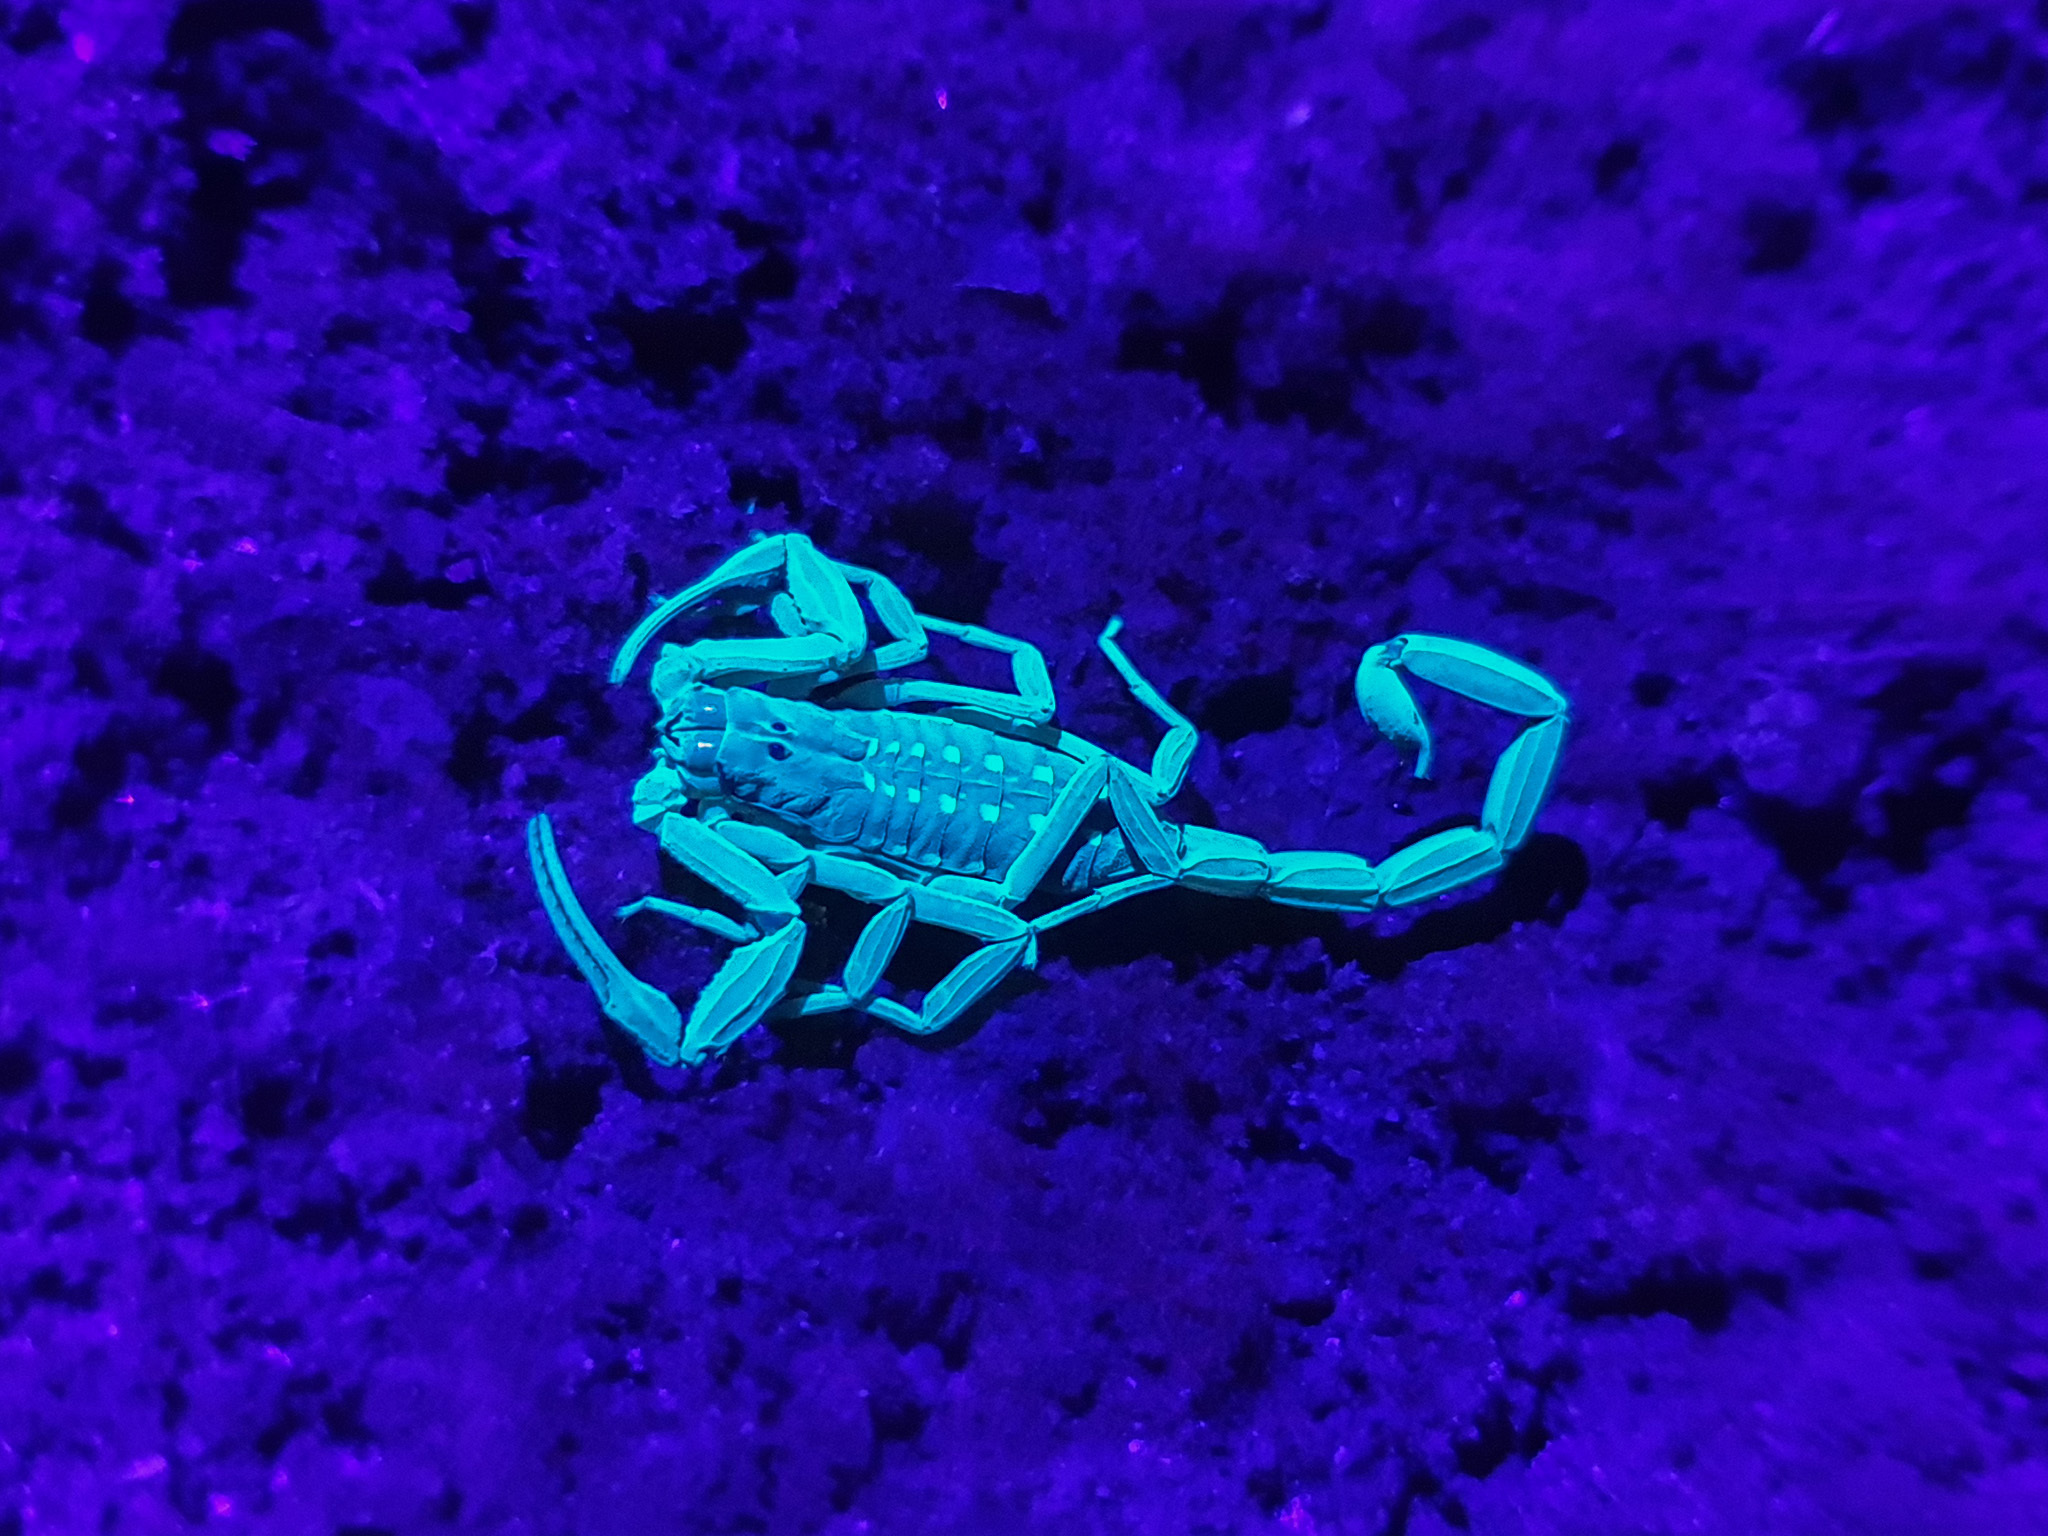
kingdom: Animalia
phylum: Arthropoda
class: Arachnida
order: Scorpiones
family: Buthidae
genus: Lychas
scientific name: Lychas scutilus
